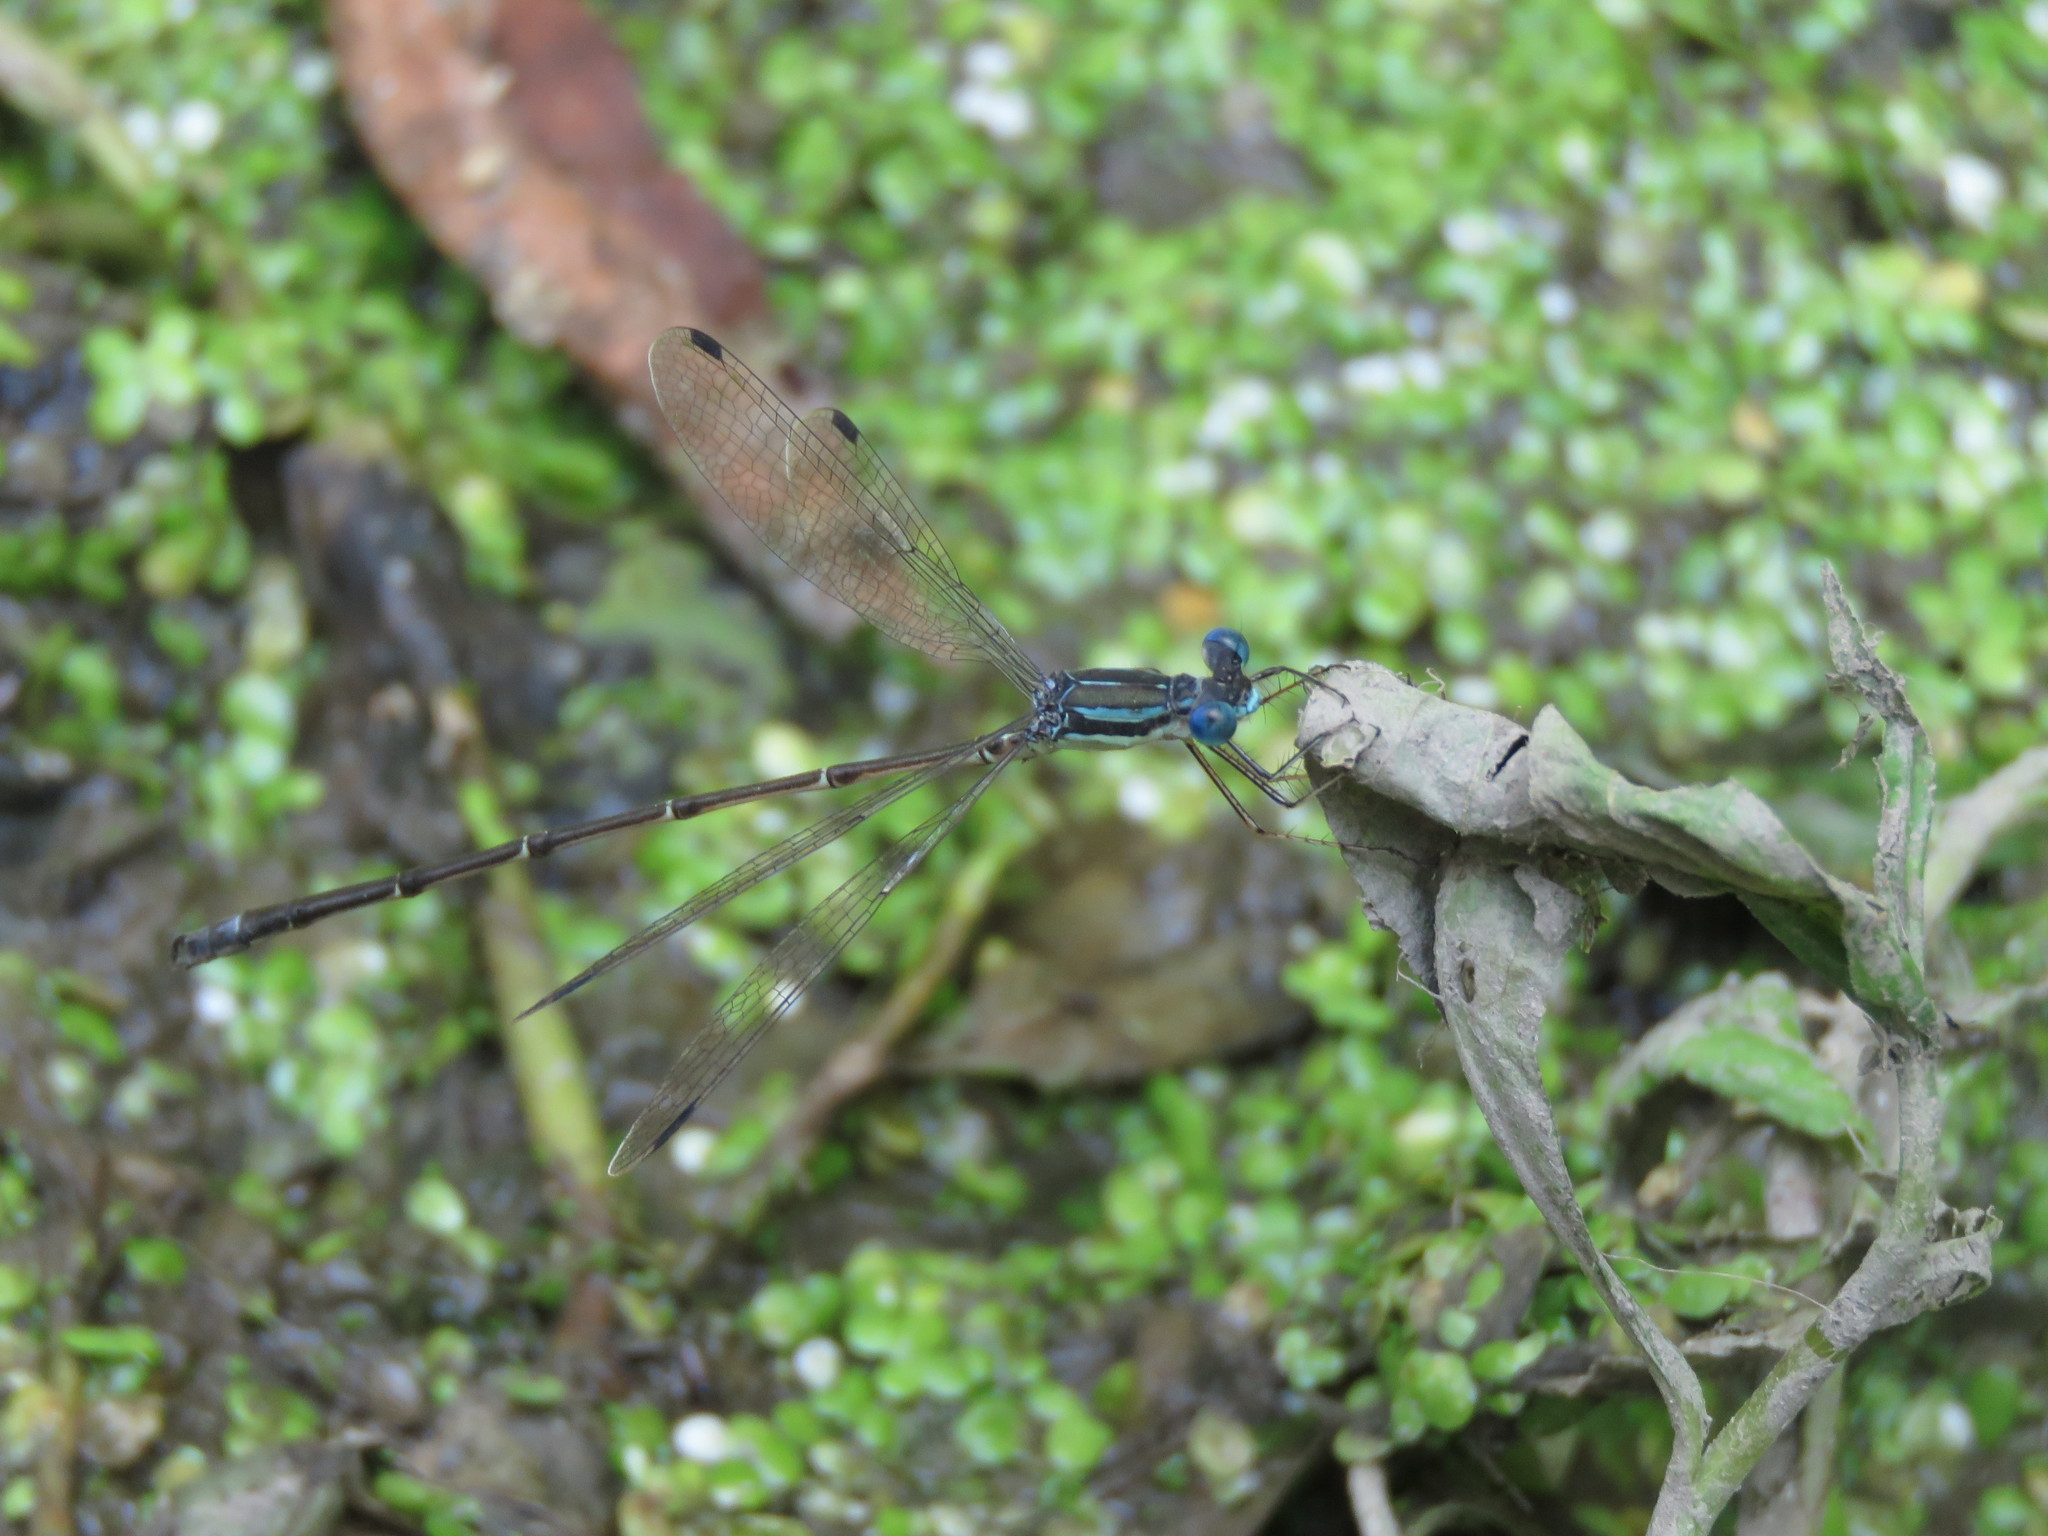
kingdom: Animalia
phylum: Arthropoda
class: Insecta
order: Odonata
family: Lestidae
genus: Lestes
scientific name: Lestes rectangularis
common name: Slender spreadwing
